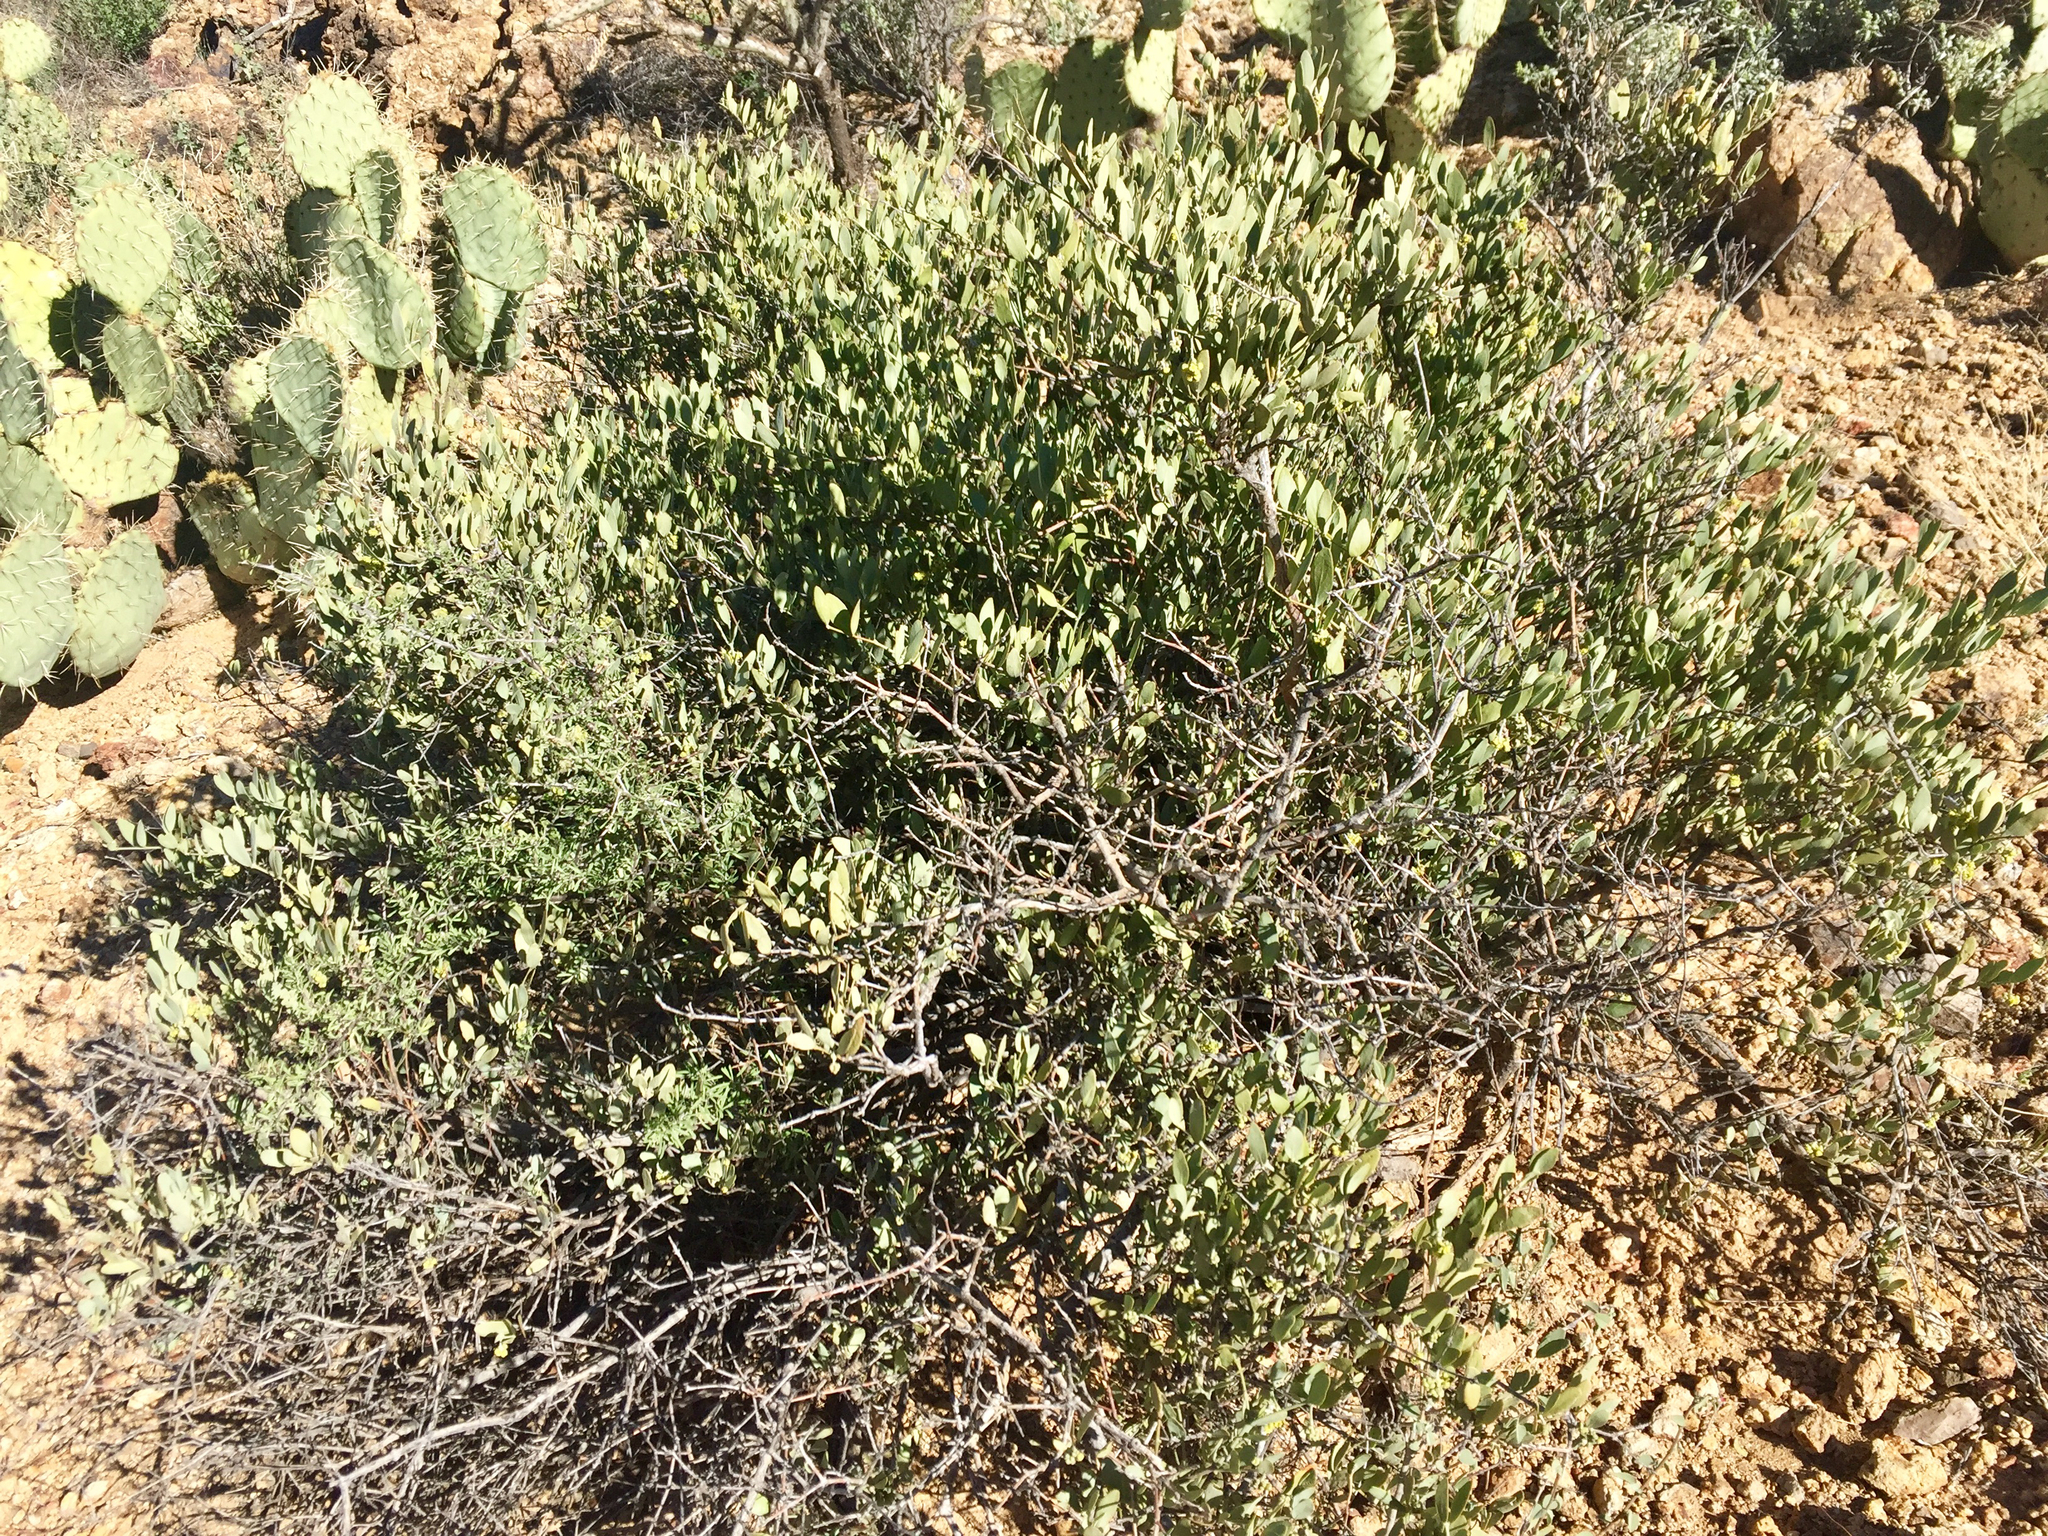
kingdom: Plantae
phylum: Tracheophyta
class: Magnoliopsida
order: Caryophyllales
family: Simmondsiaceae
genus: Simmondsia
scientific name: Simmondsia chinensis
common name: Jojoba
